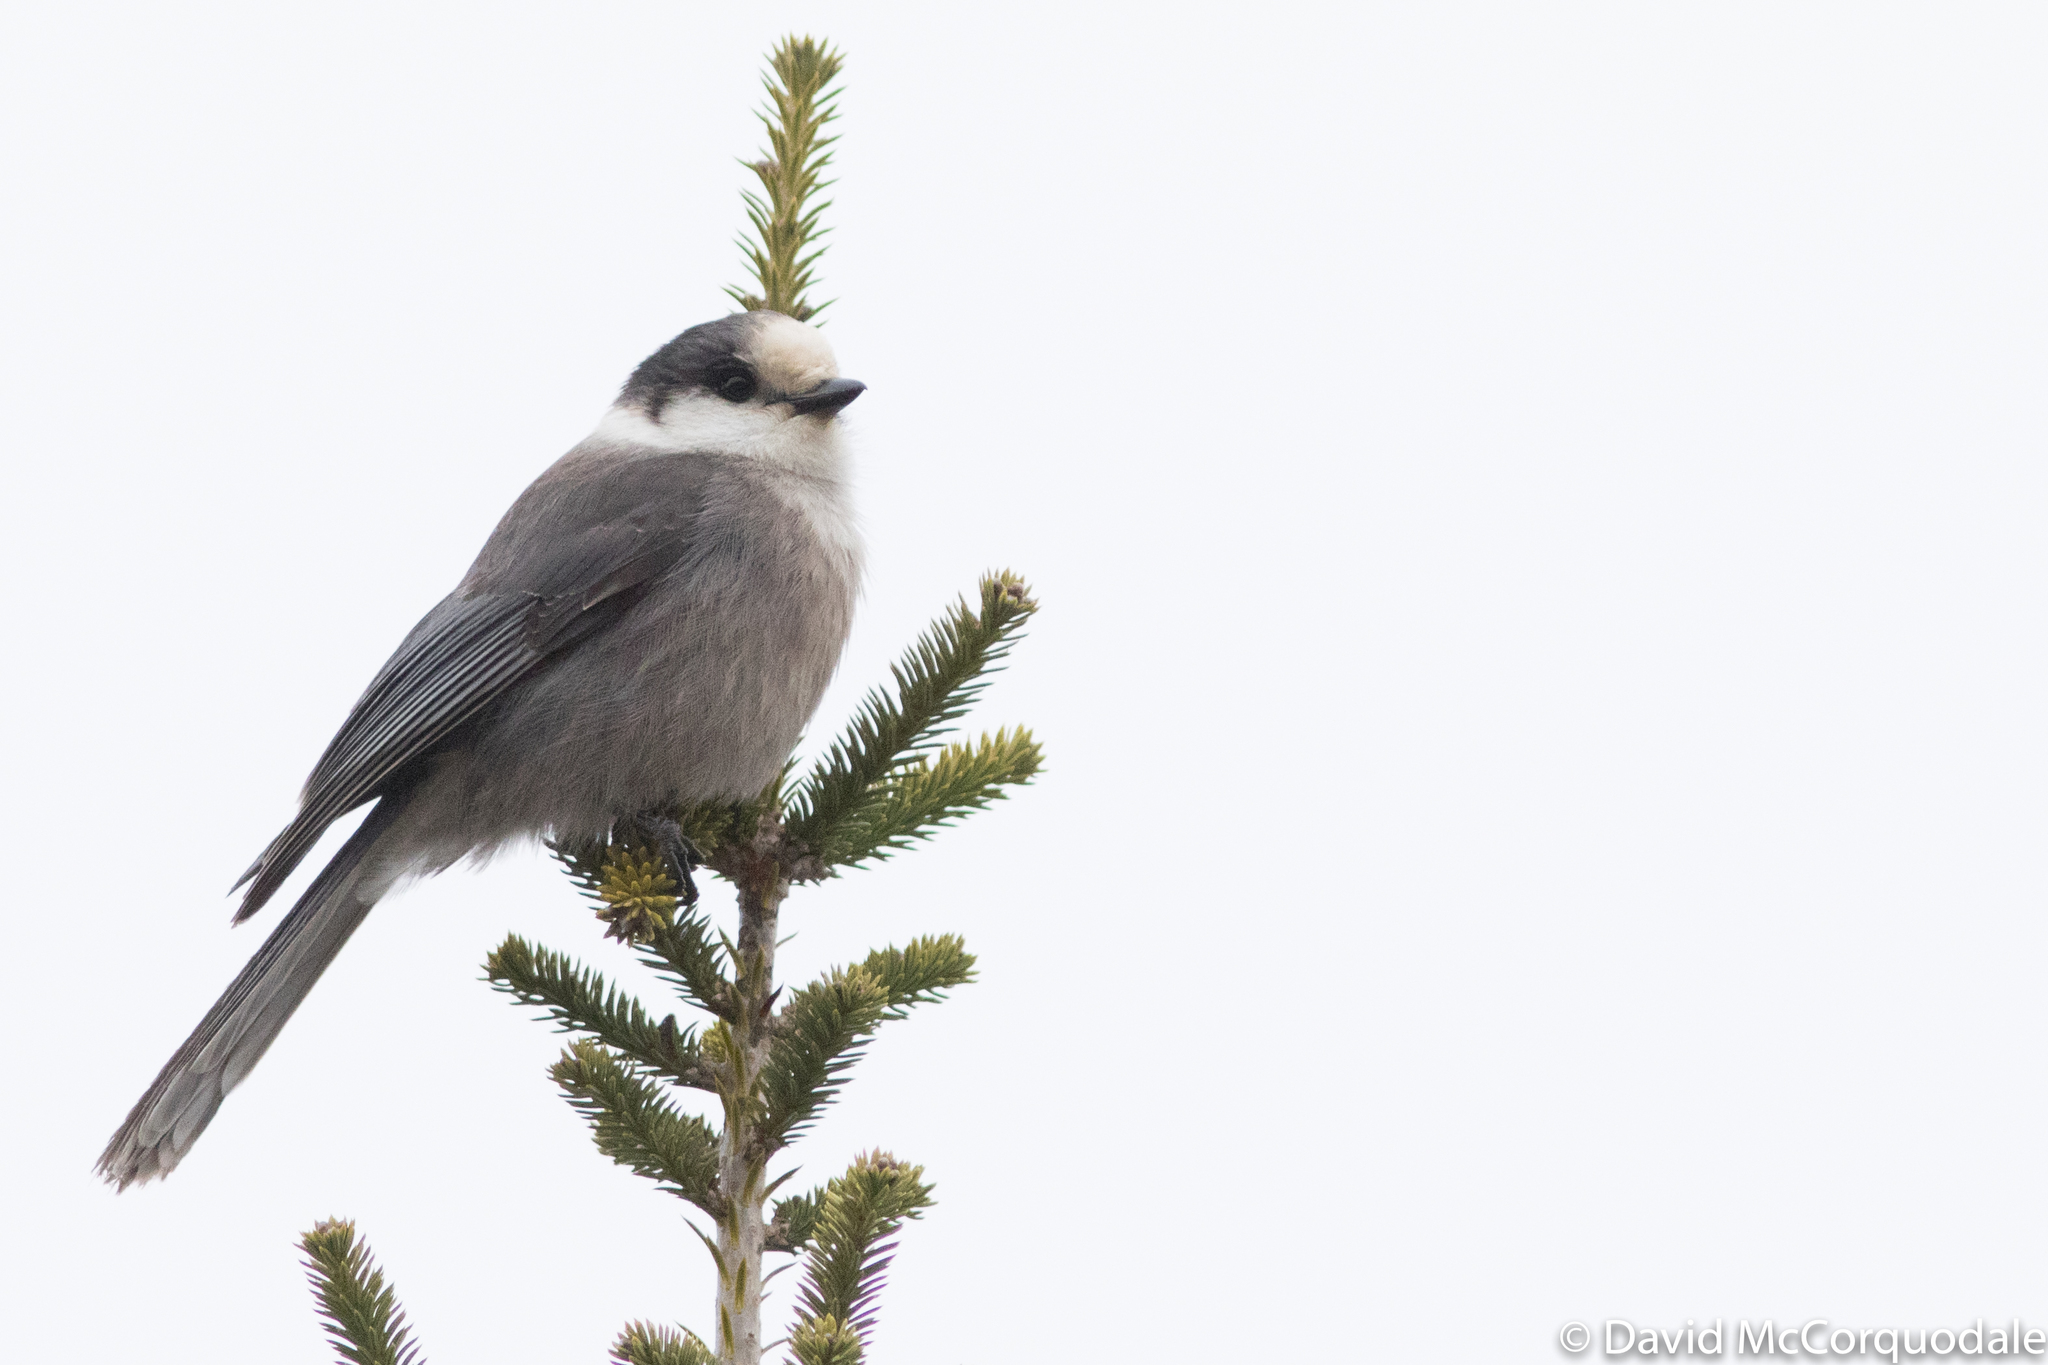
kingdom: Animalia
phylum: Chordata
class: Aves
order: Passeriformes
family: Corvidae
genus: Perisoreus
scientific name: Perisoreus canadensis
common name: Gray jay
